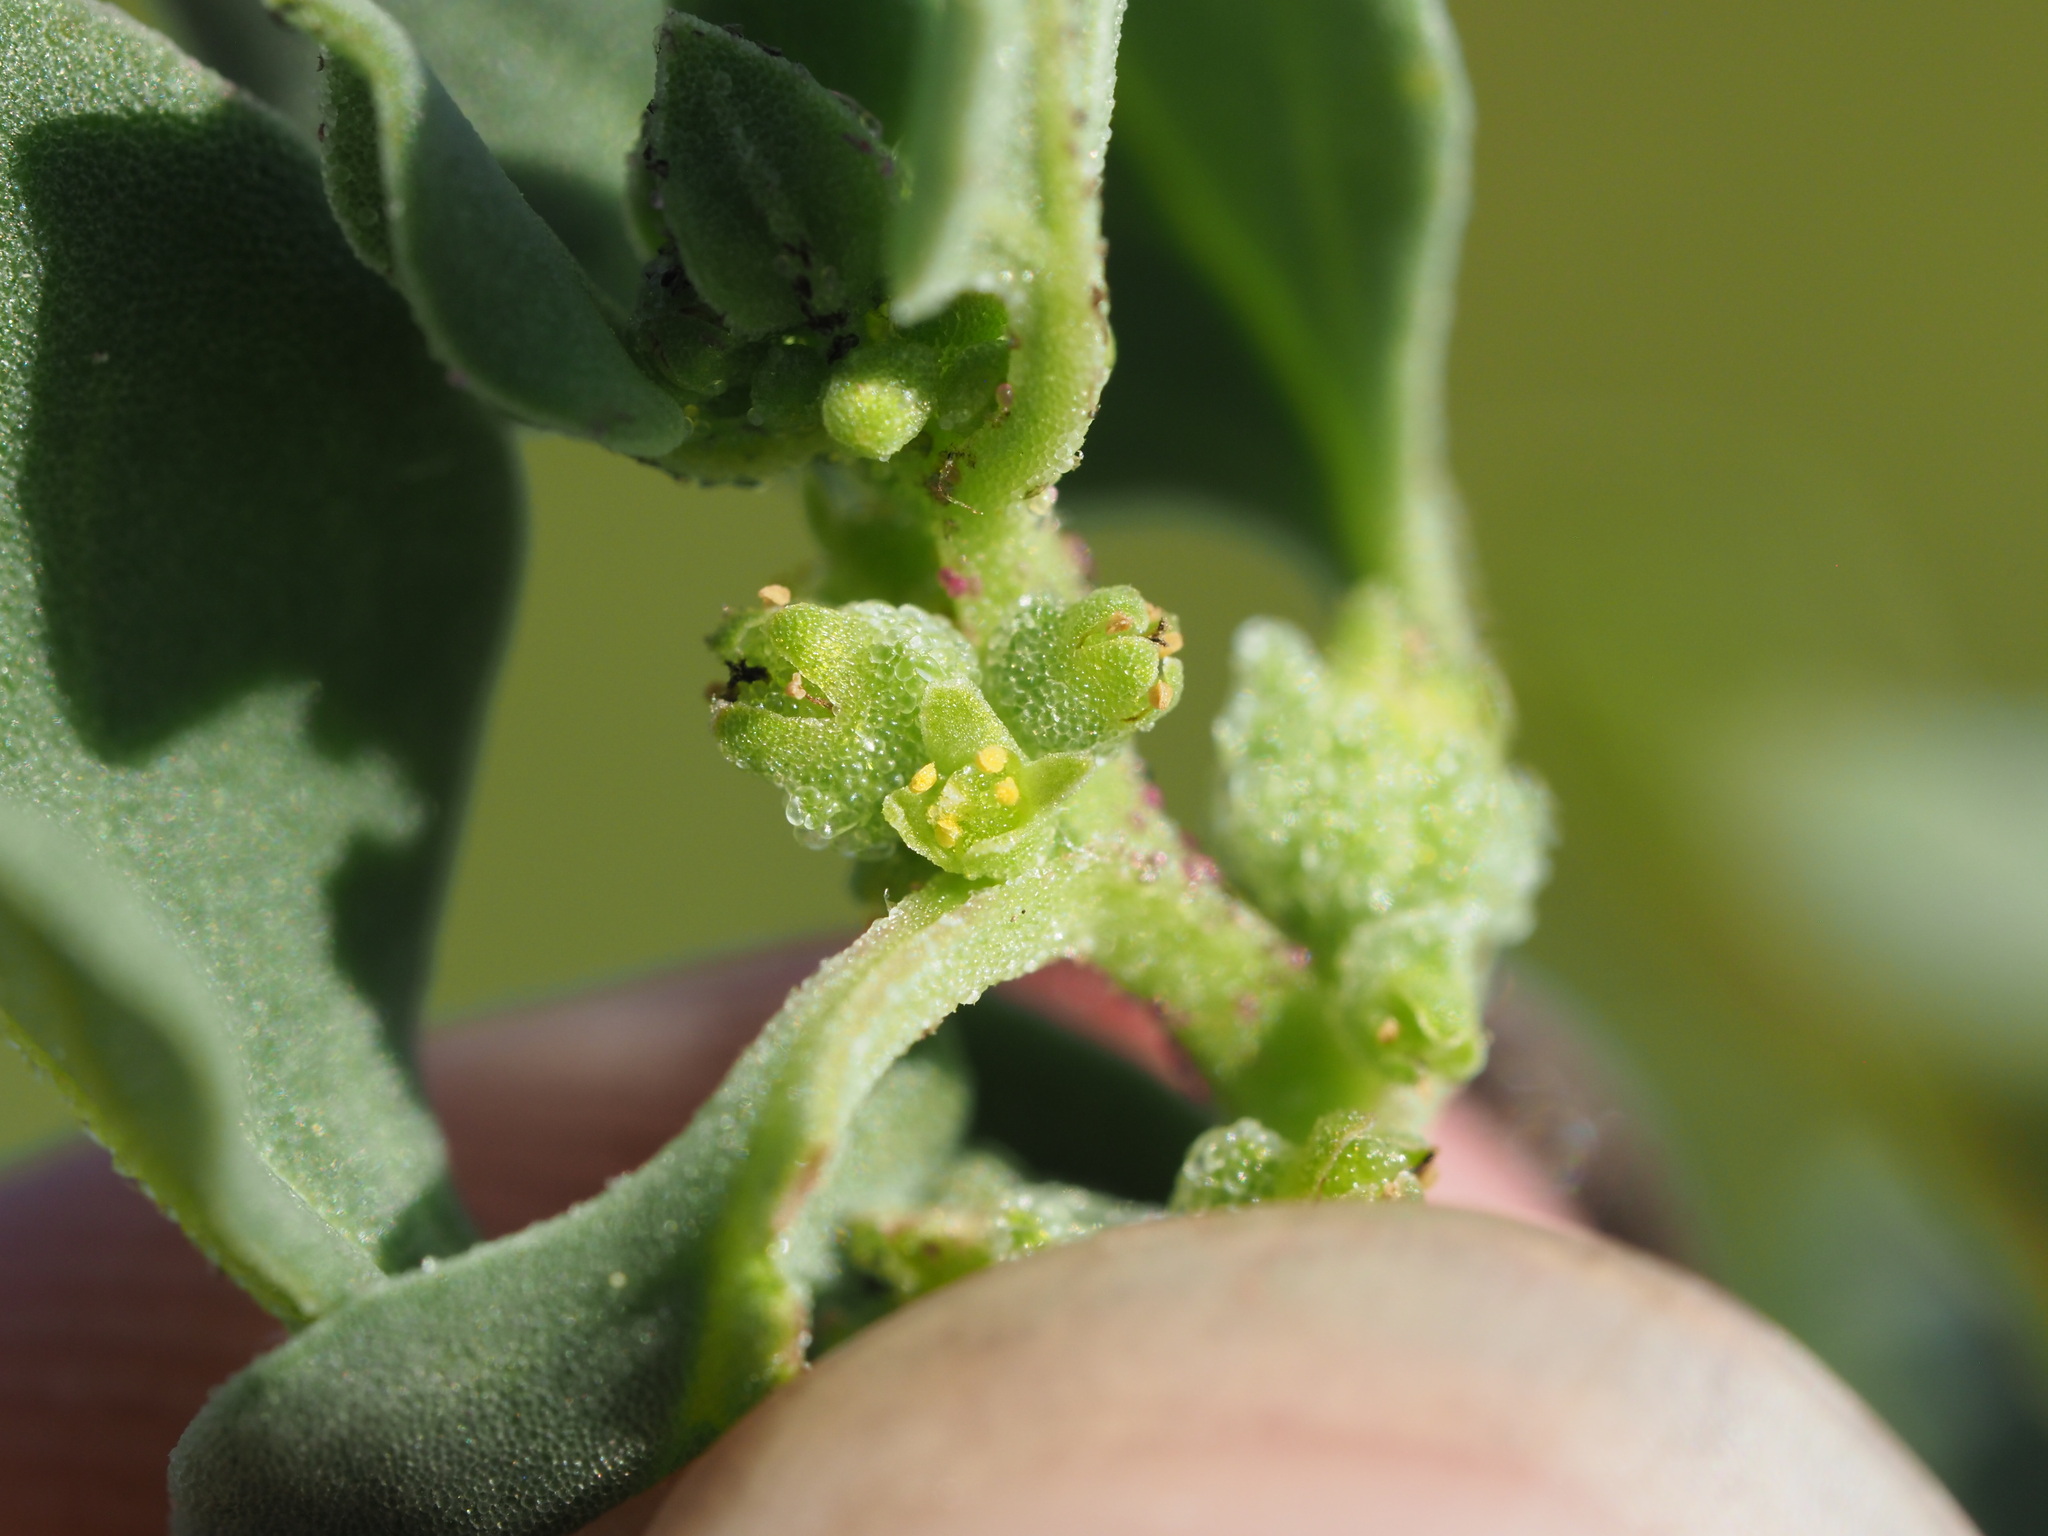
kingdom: Plantae
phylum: Tracheophyta
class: Magnoliopsida
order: Caryophyllales
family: Aizoaceae
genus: Tetragonia
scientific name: Tetragonia echinata
